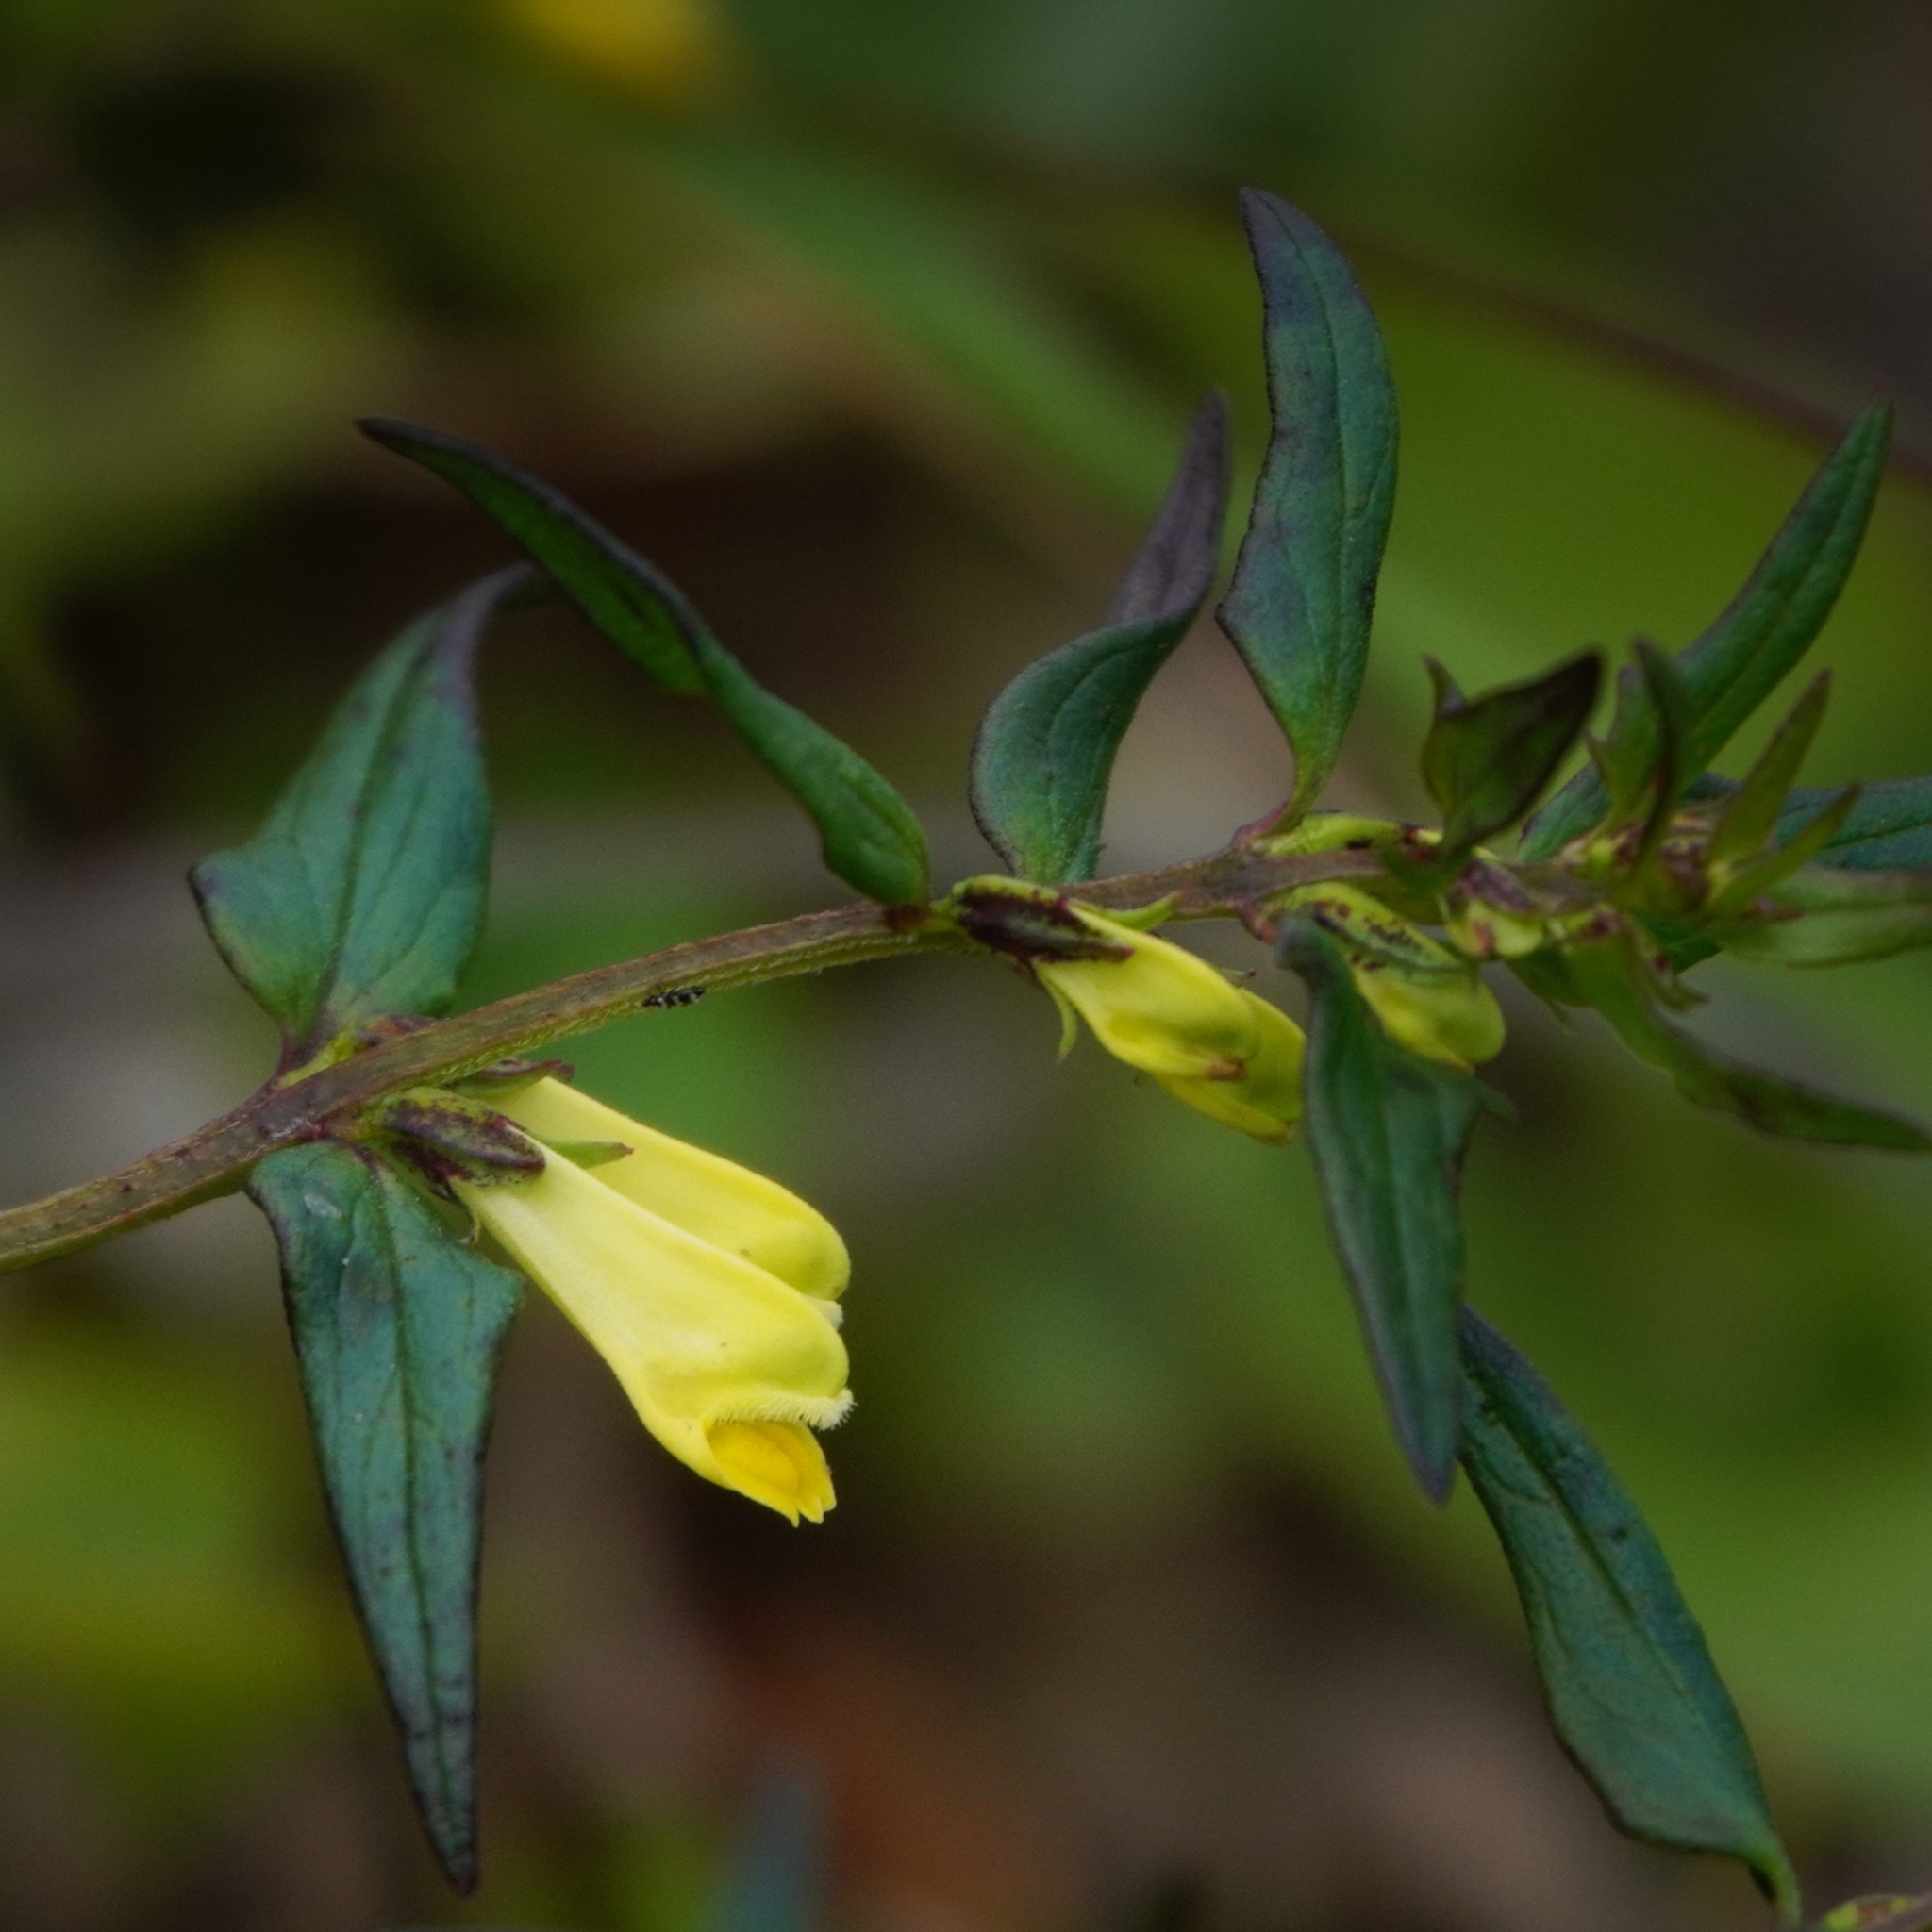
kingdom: Plantae
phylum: Tracheophyta
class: Magnoliopsida
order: Lamiales
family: Orobanchaceae
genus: Melampyrum
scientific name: Melampyrum pratense
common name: Common cow-wheat
